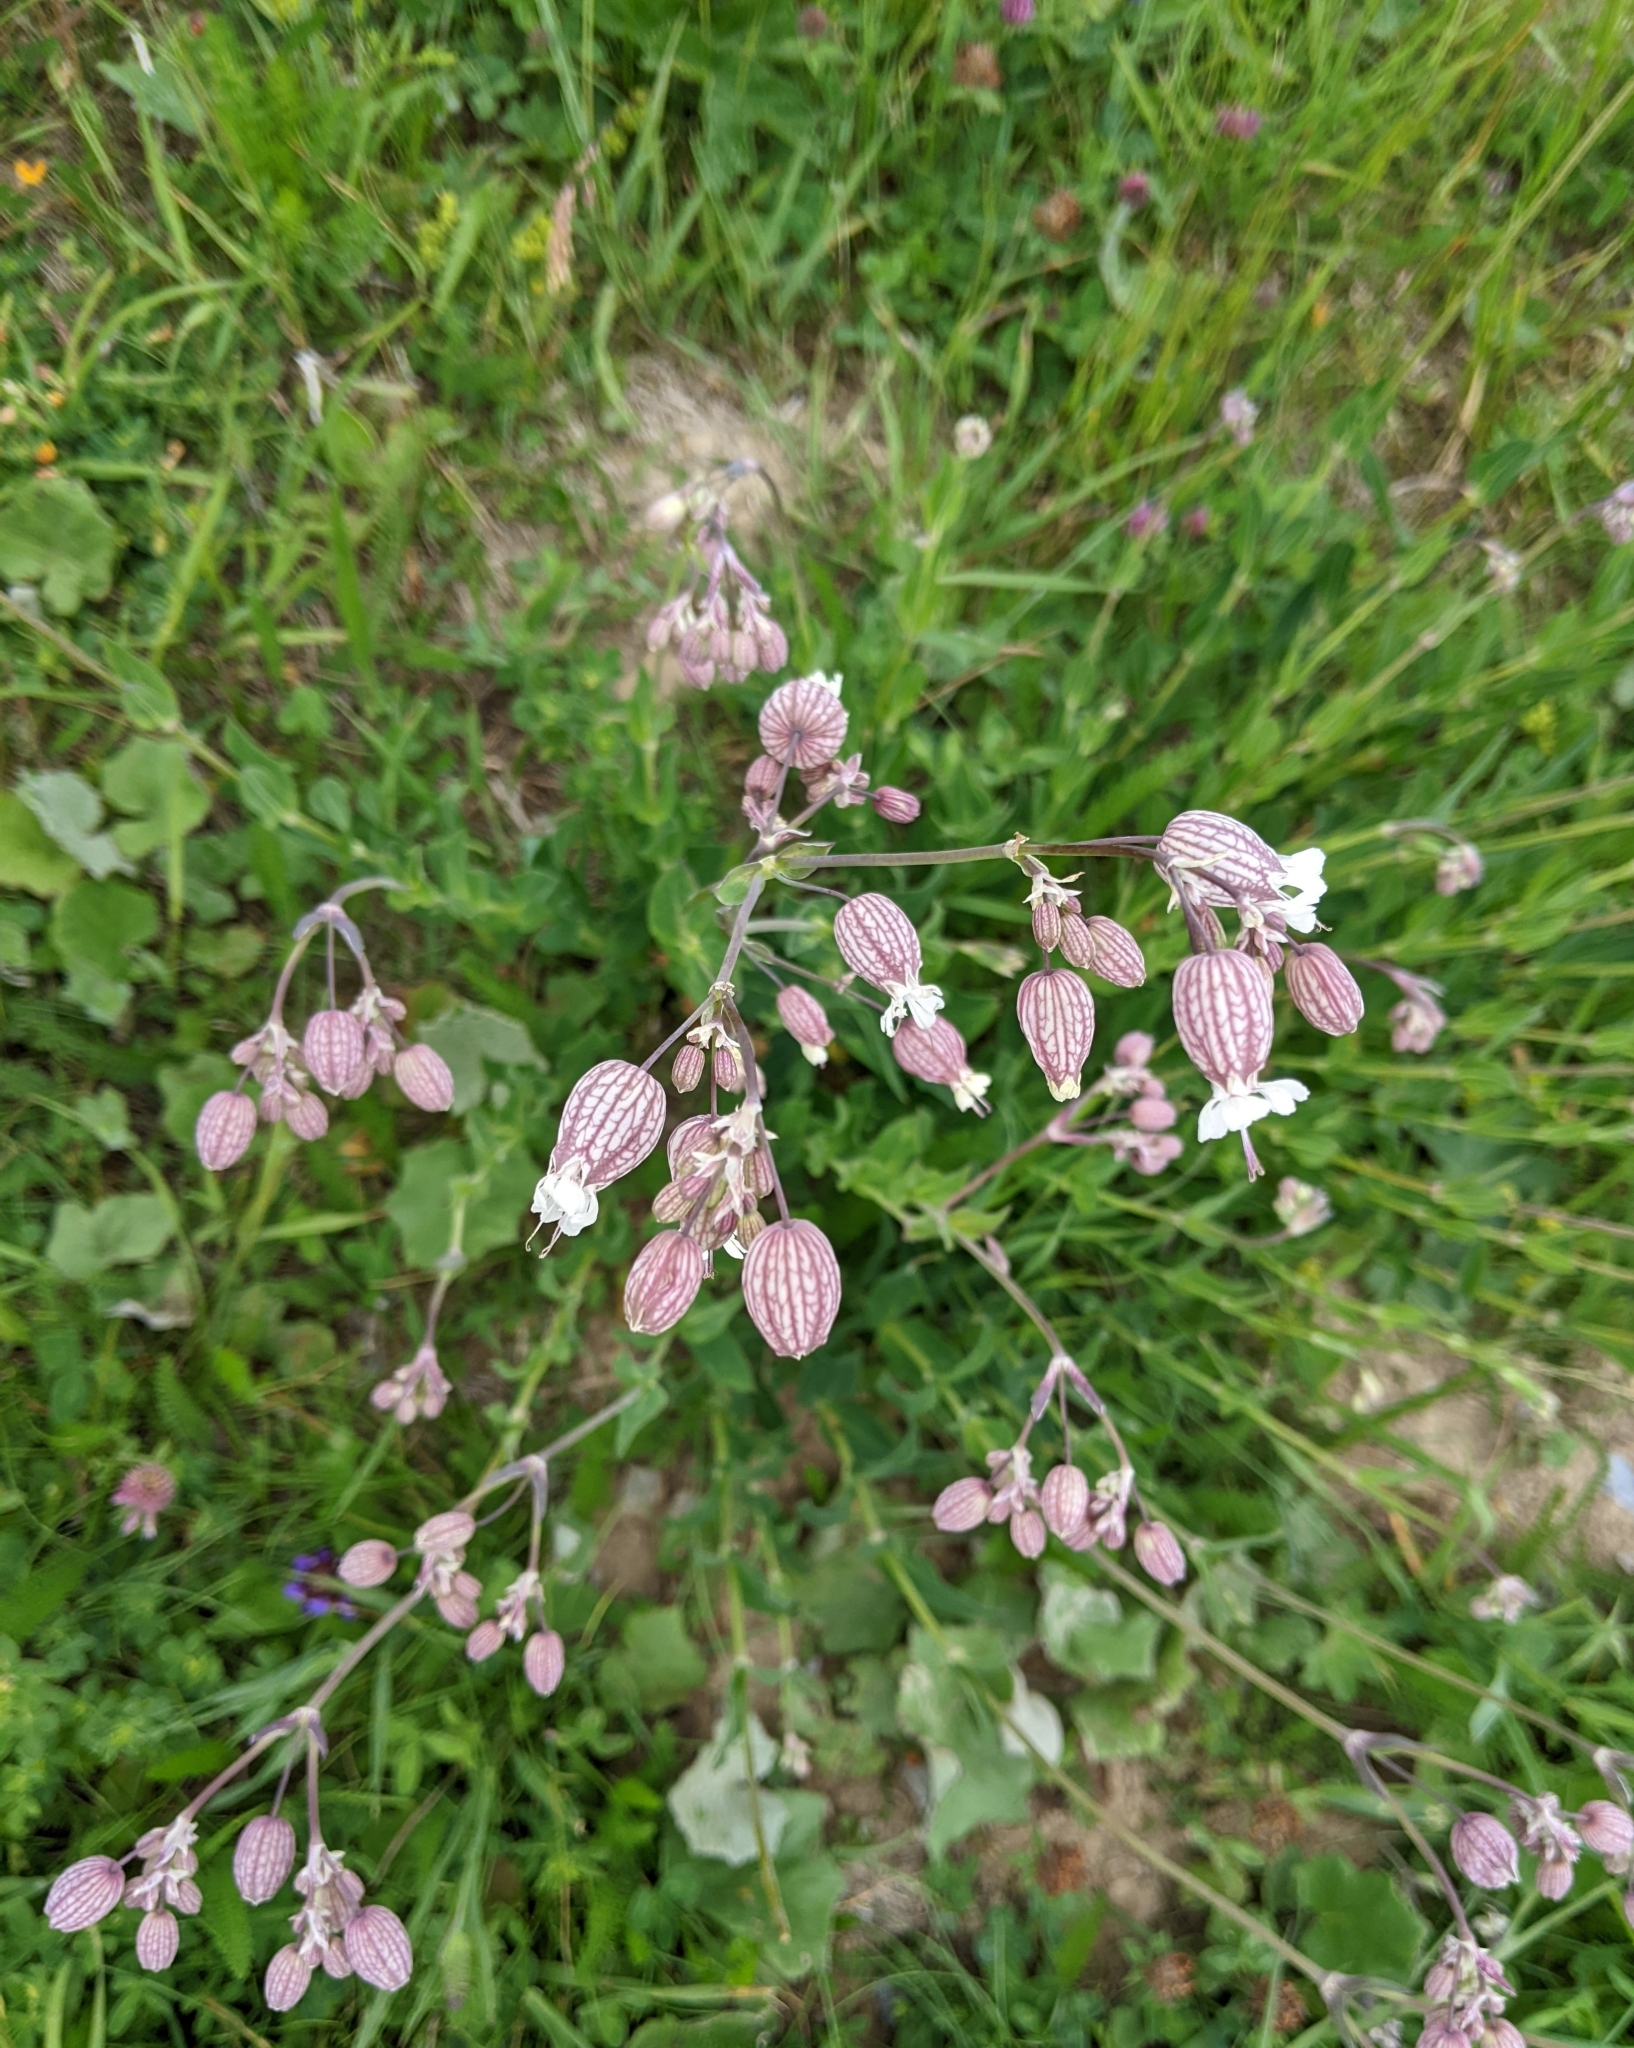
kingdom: Plantae
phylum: Tracheophyta
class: Magnoliopsida
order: Caryophyllales
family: Caryophyllaceae
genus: Silene
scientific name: Silene vulgaris
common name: Bladder campion
